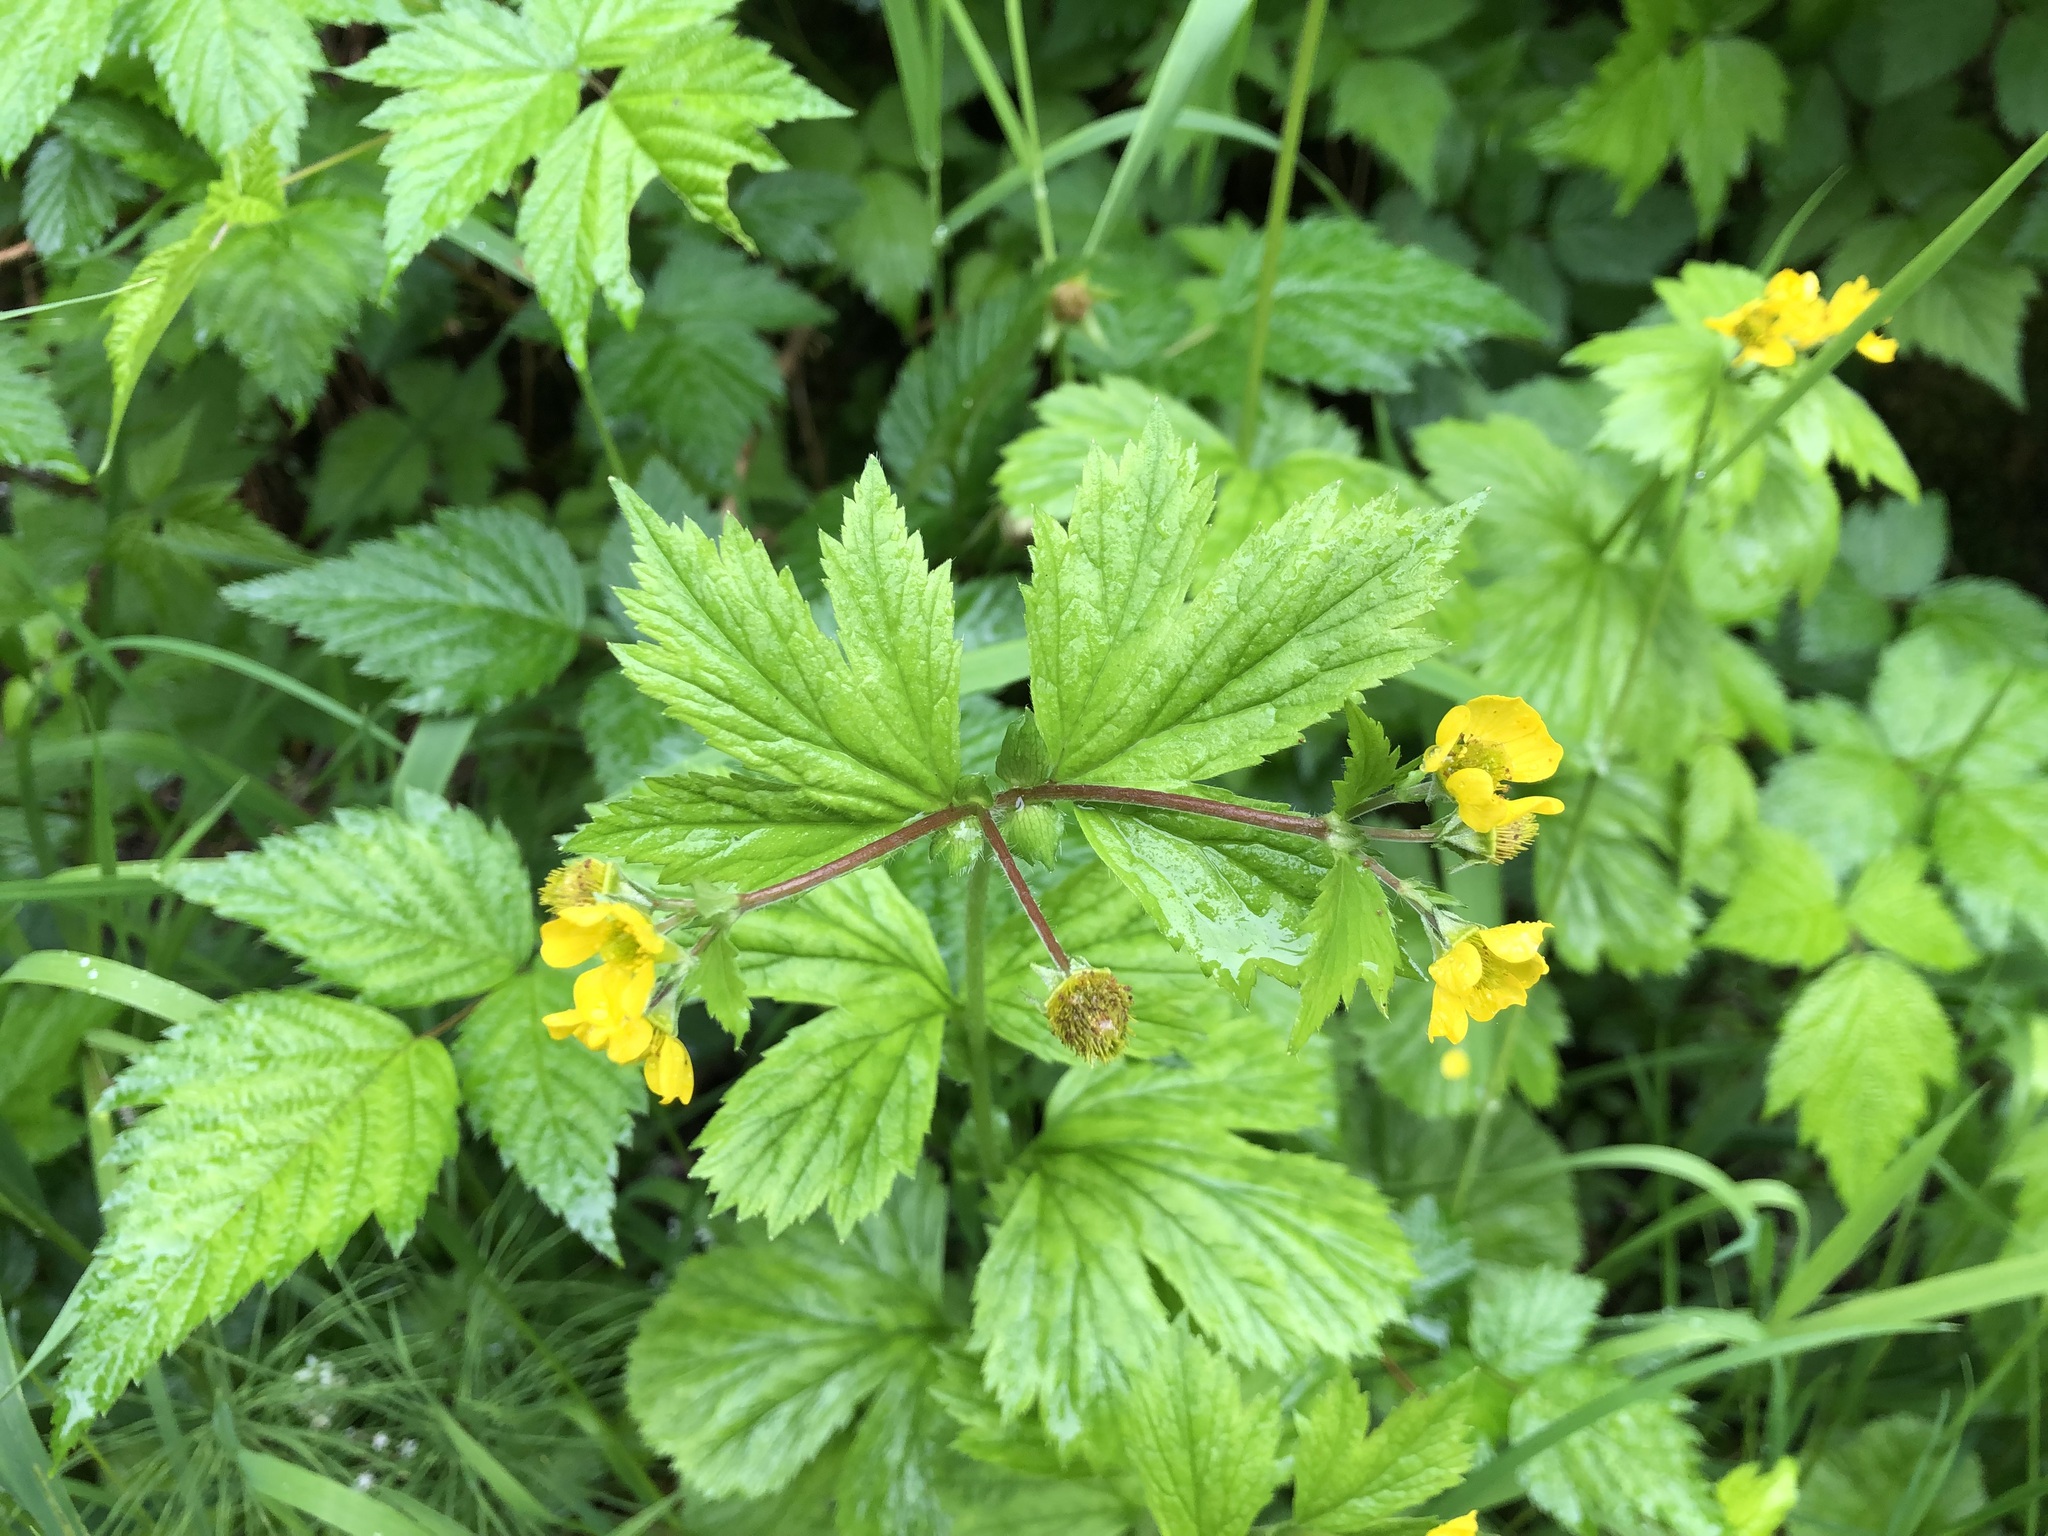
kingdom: Plantae
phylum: Tracheophyta
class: Magnoliopsida
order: Rosales
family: Rosaceae
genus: Geum
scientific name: Geum macrophyllum
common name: Large-leaved avens
